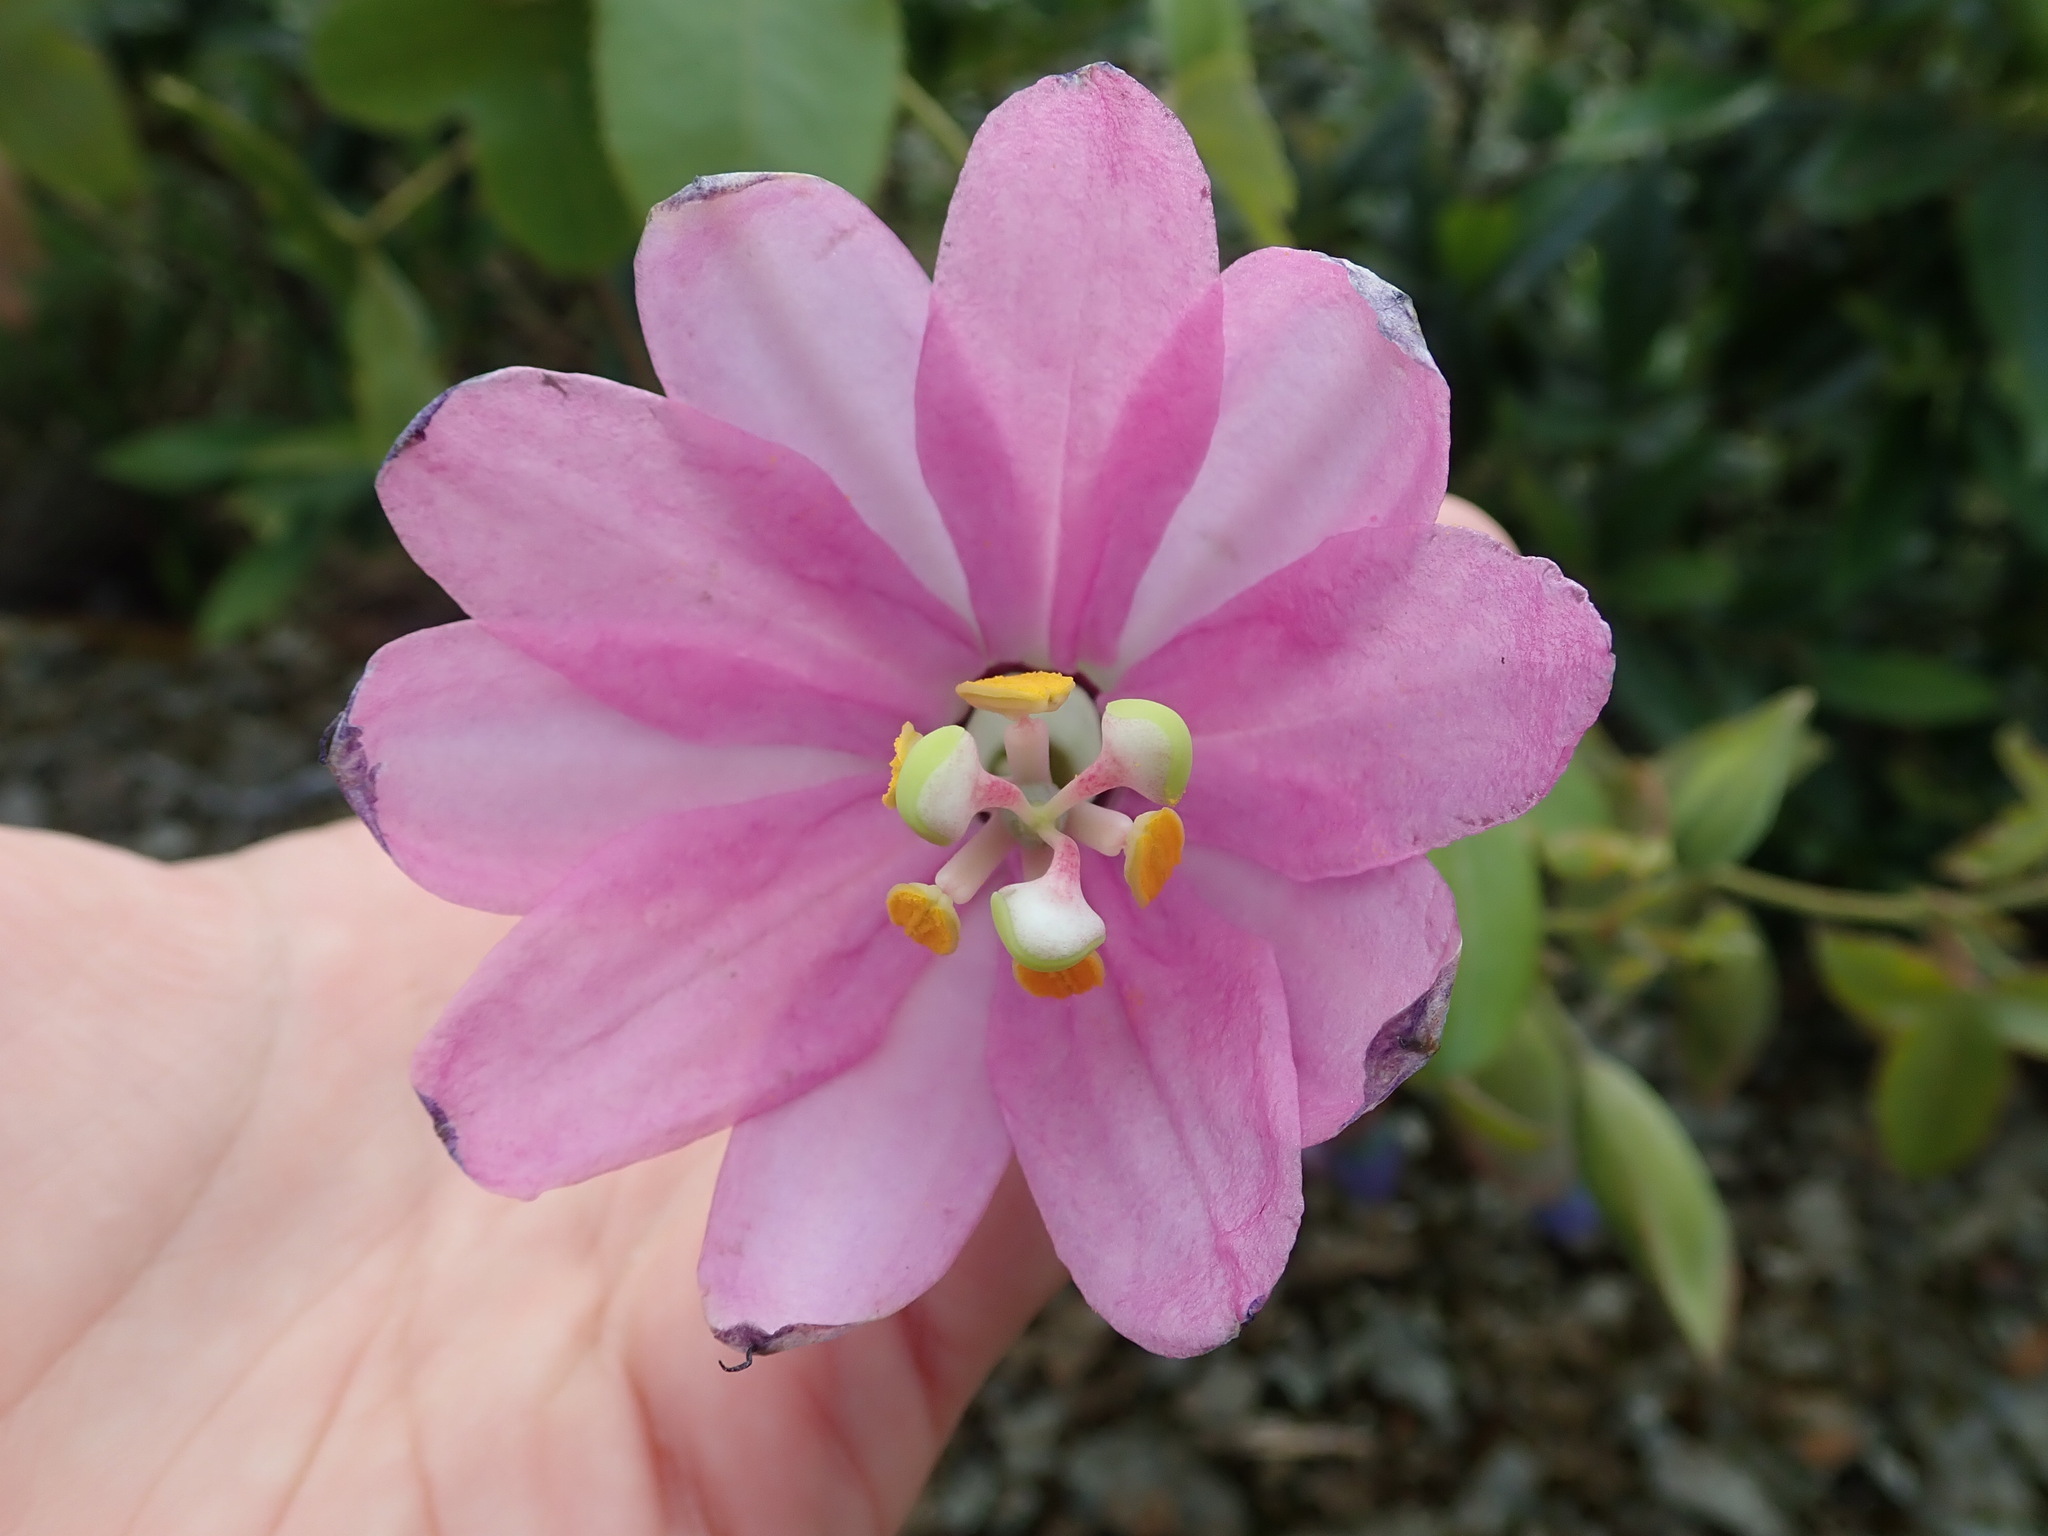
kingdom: Plantae
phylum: Tracheophyta
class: Magnoliopsida
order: Malpighiales
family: Passifloraceae
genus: Passiflora
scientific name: Passiflora cumbalensis
